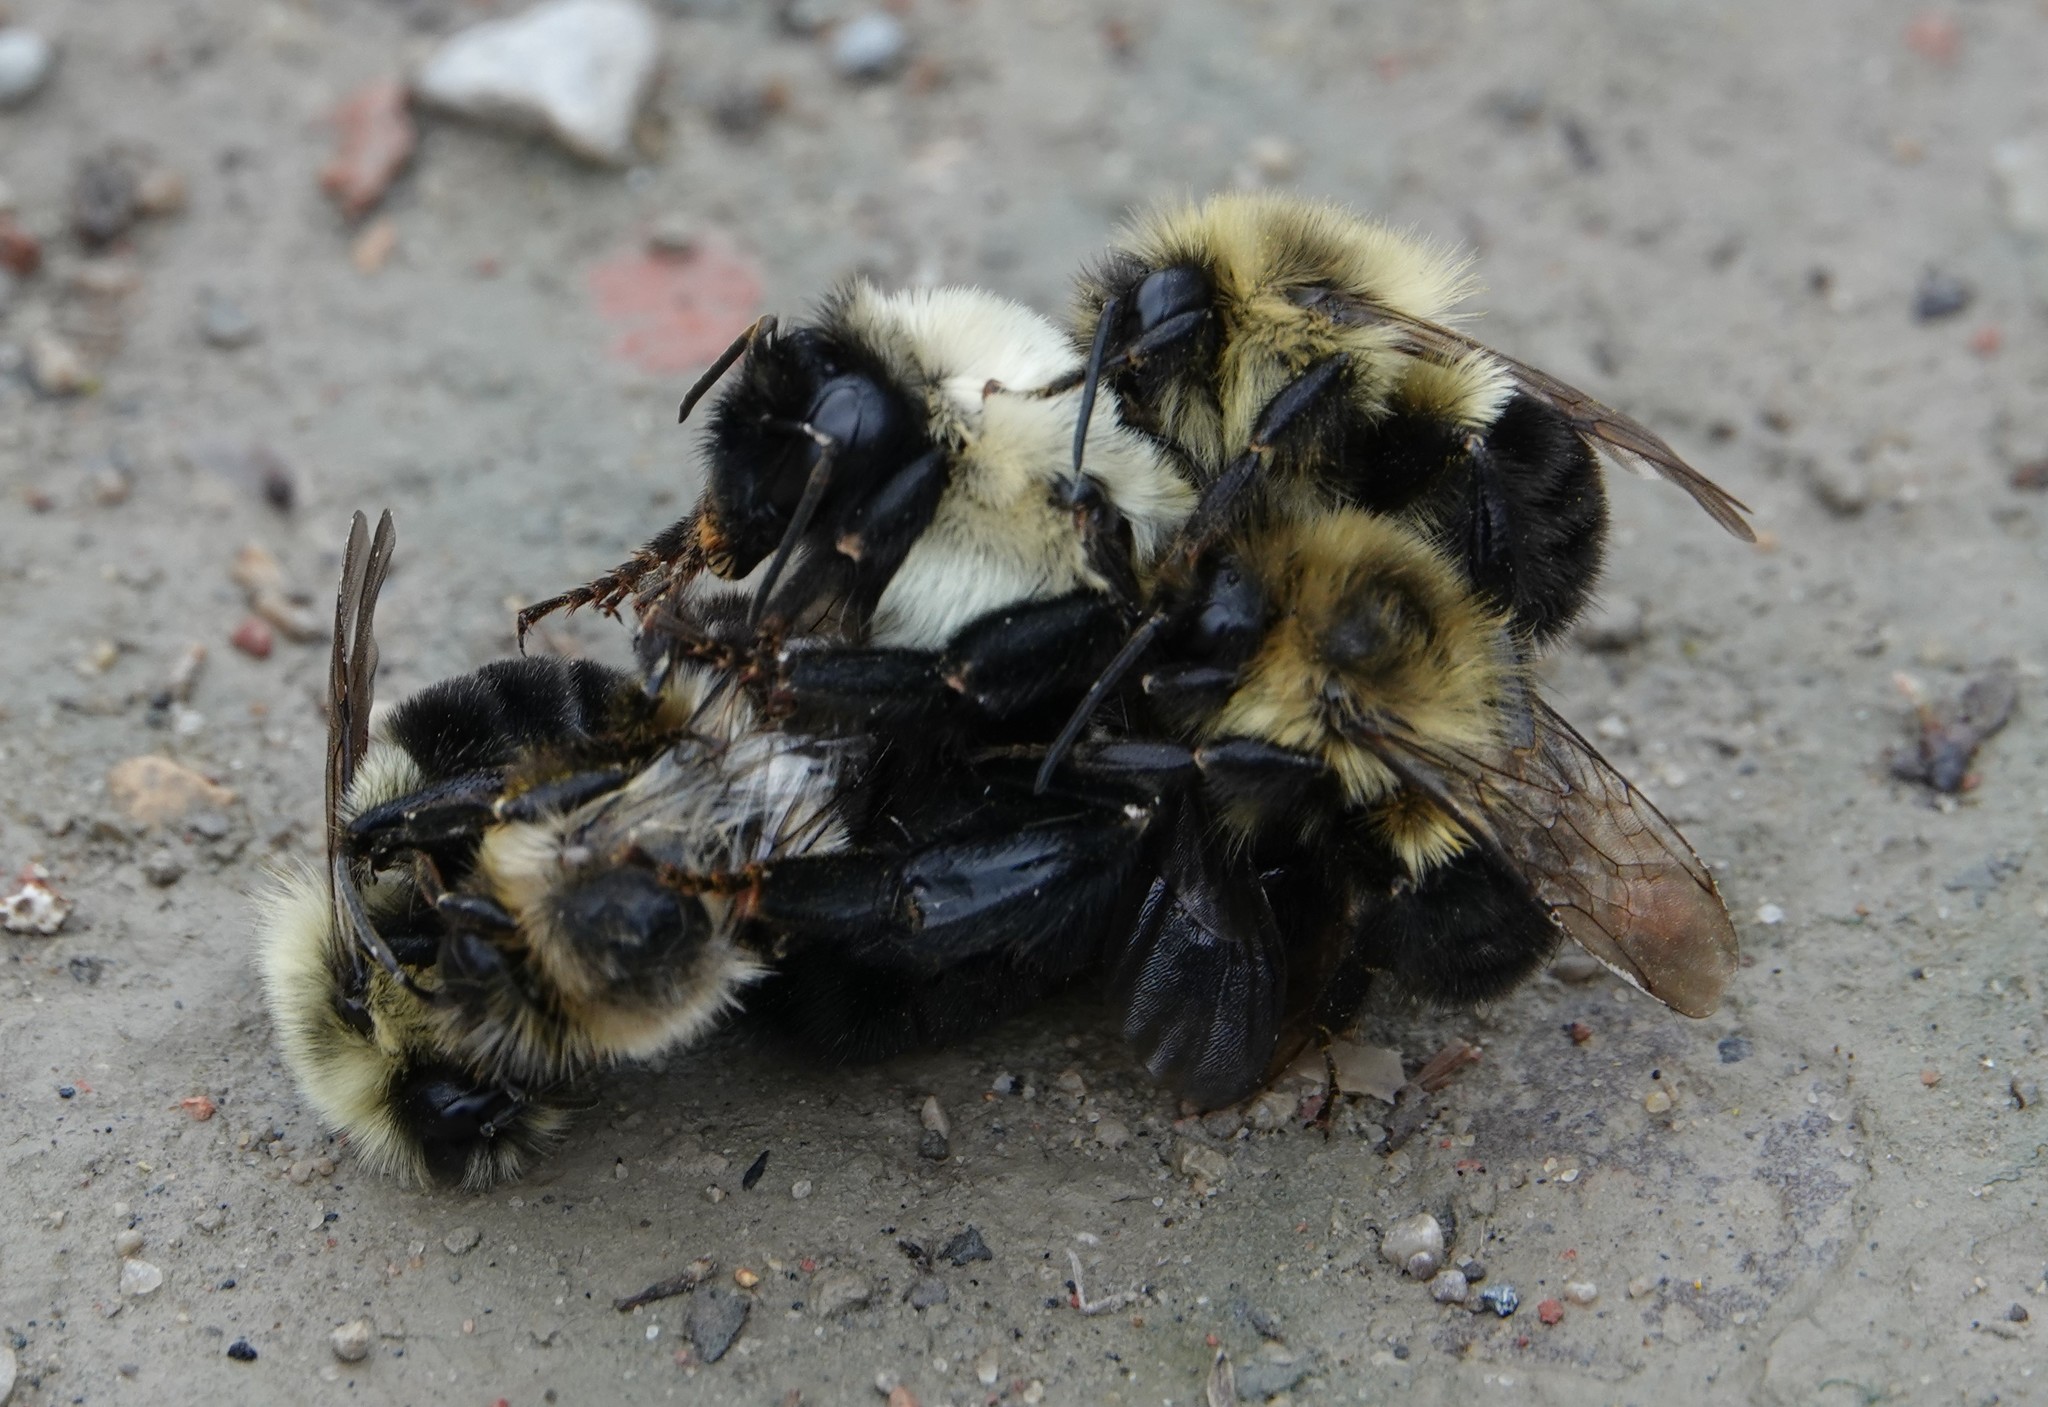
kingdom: Animalia
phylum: Arthropoda
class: Insecta
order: Hymenoptera
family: Apidae
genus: Bombus
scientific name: Bombus impatiens
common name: Common eastern bumble bee
